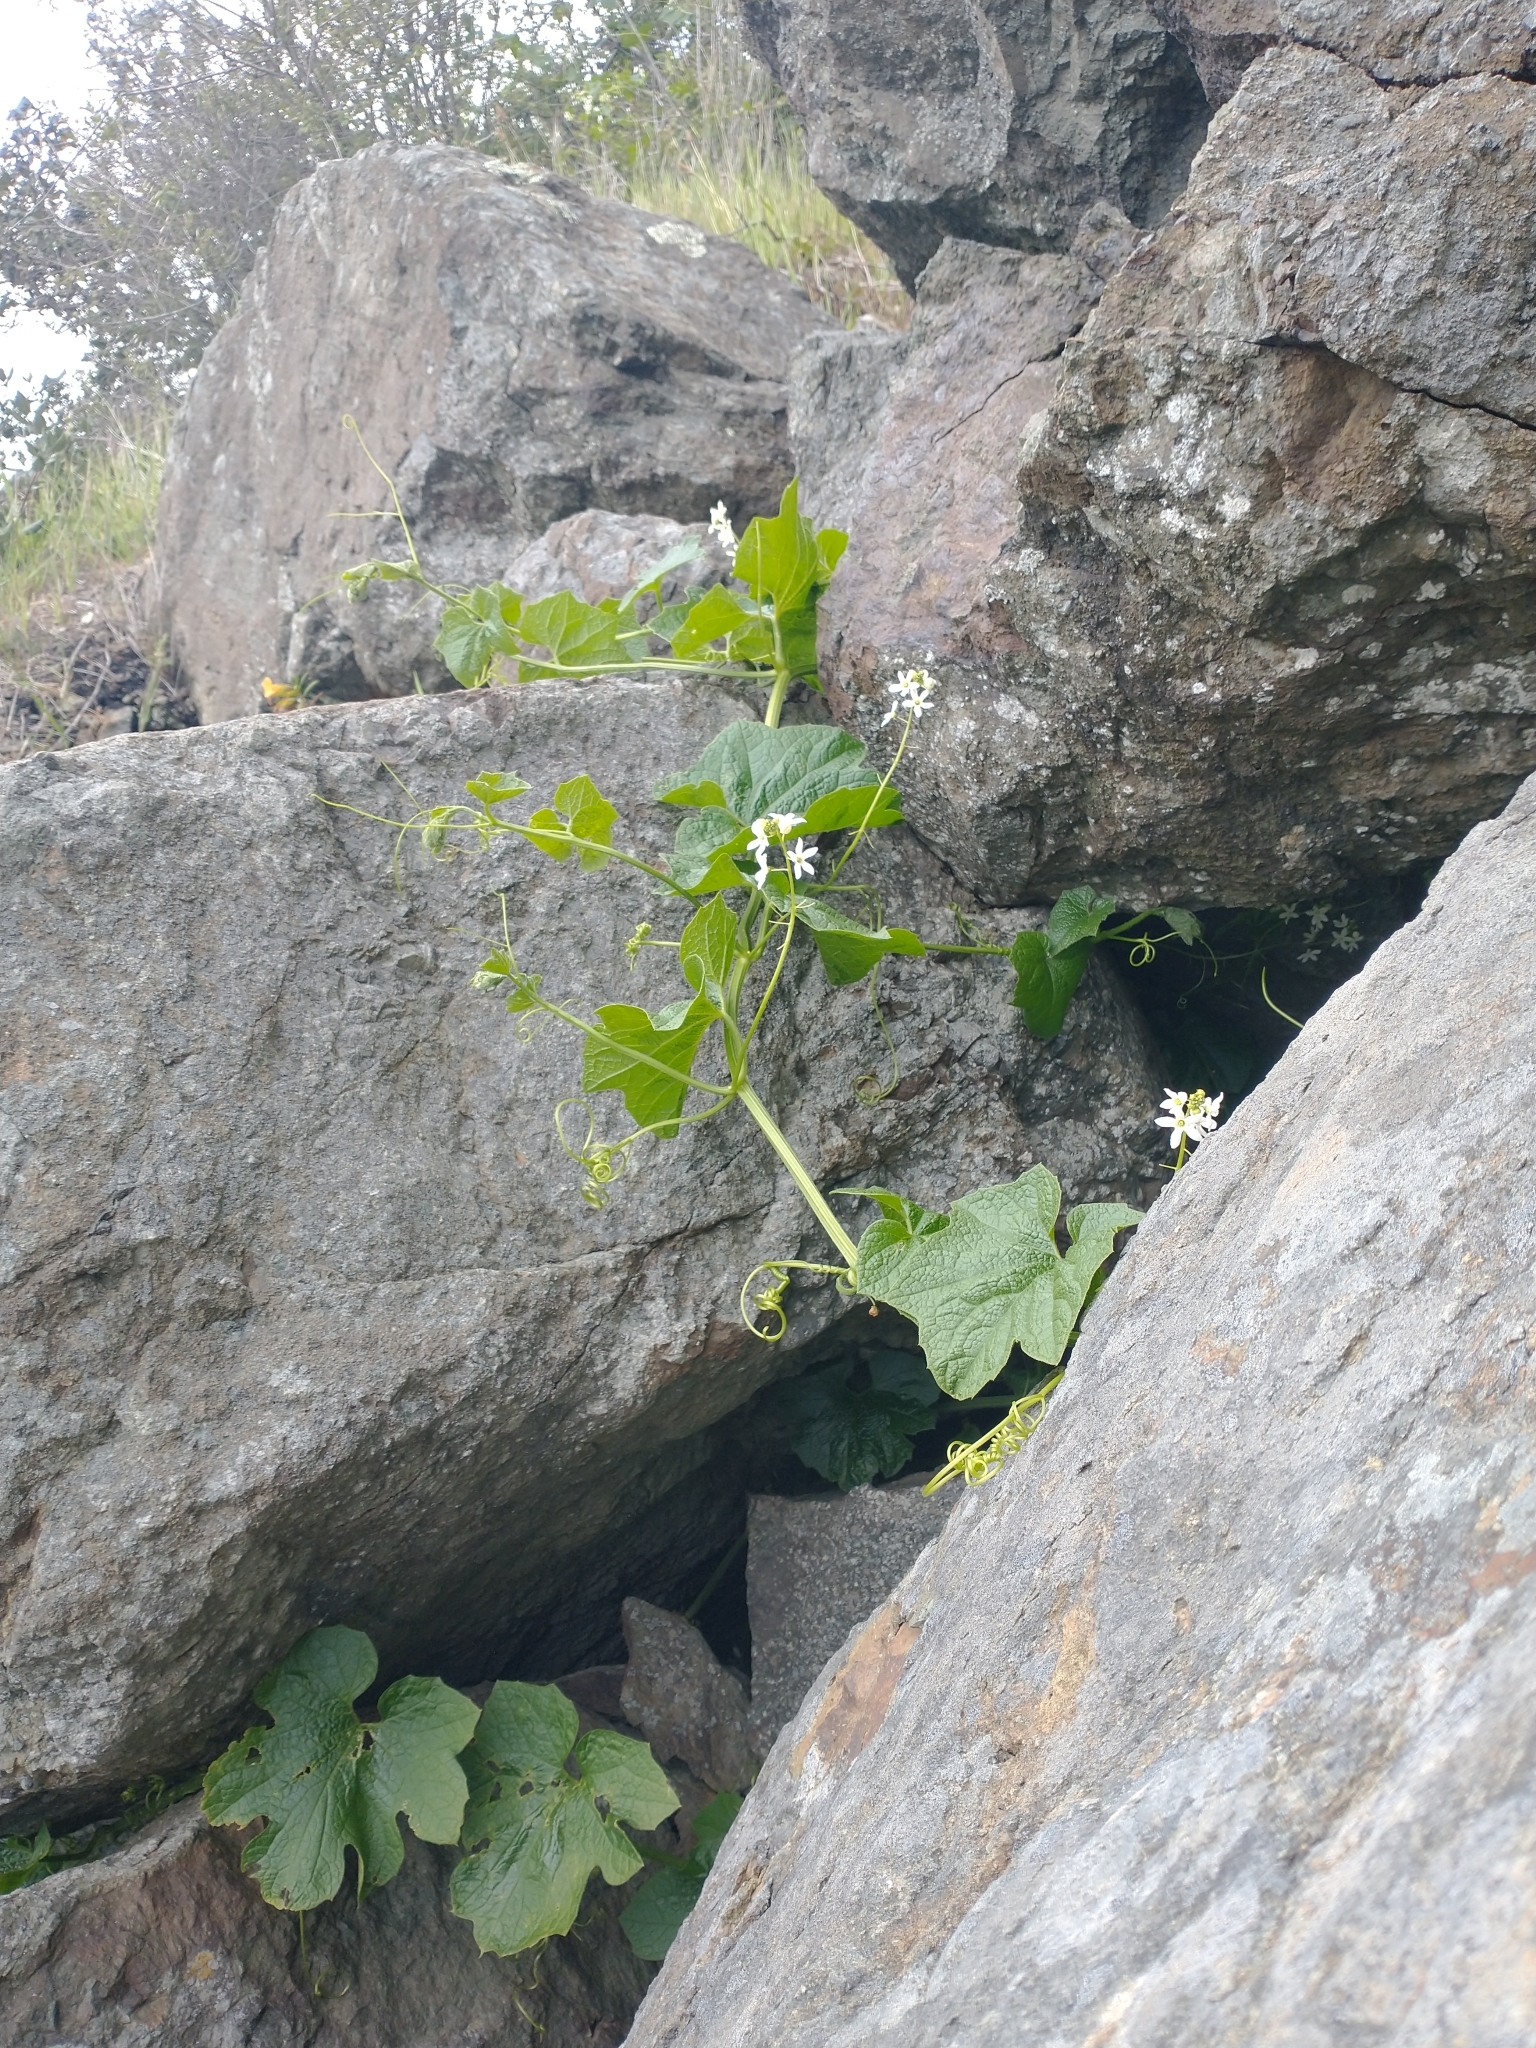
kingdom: Plantae
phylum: Tracheophyta
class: Magnoliopsida
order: Cucurbitales
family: Cucurbitaceae
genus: Marah
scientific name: Marah oregana
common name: Coastal manroot
